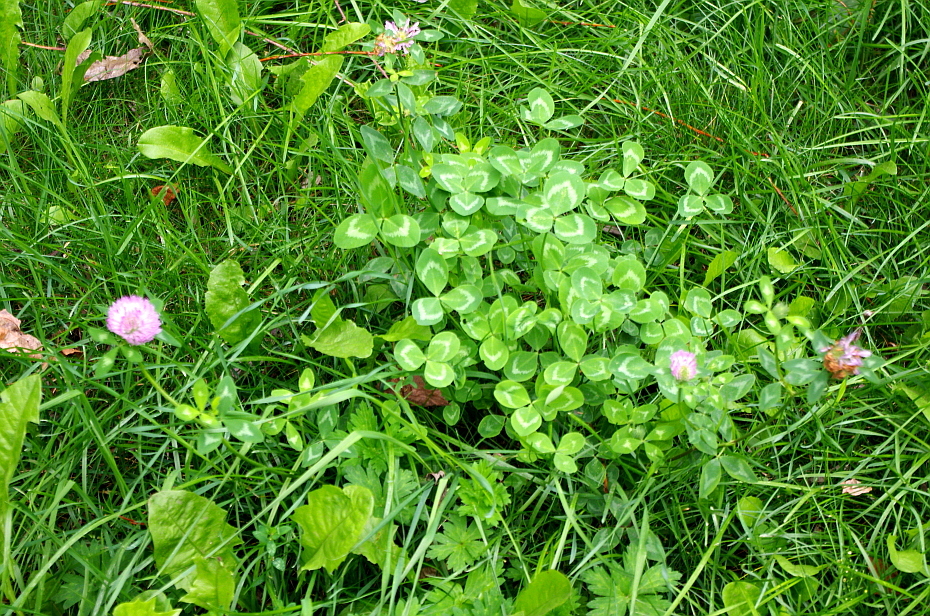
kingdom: Plantae
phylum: Tracheophyta
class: Magnoliopsida
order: Fabales
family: Fabaceae
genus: Trifolium
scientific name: Trifolium pratense
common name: Red clover
